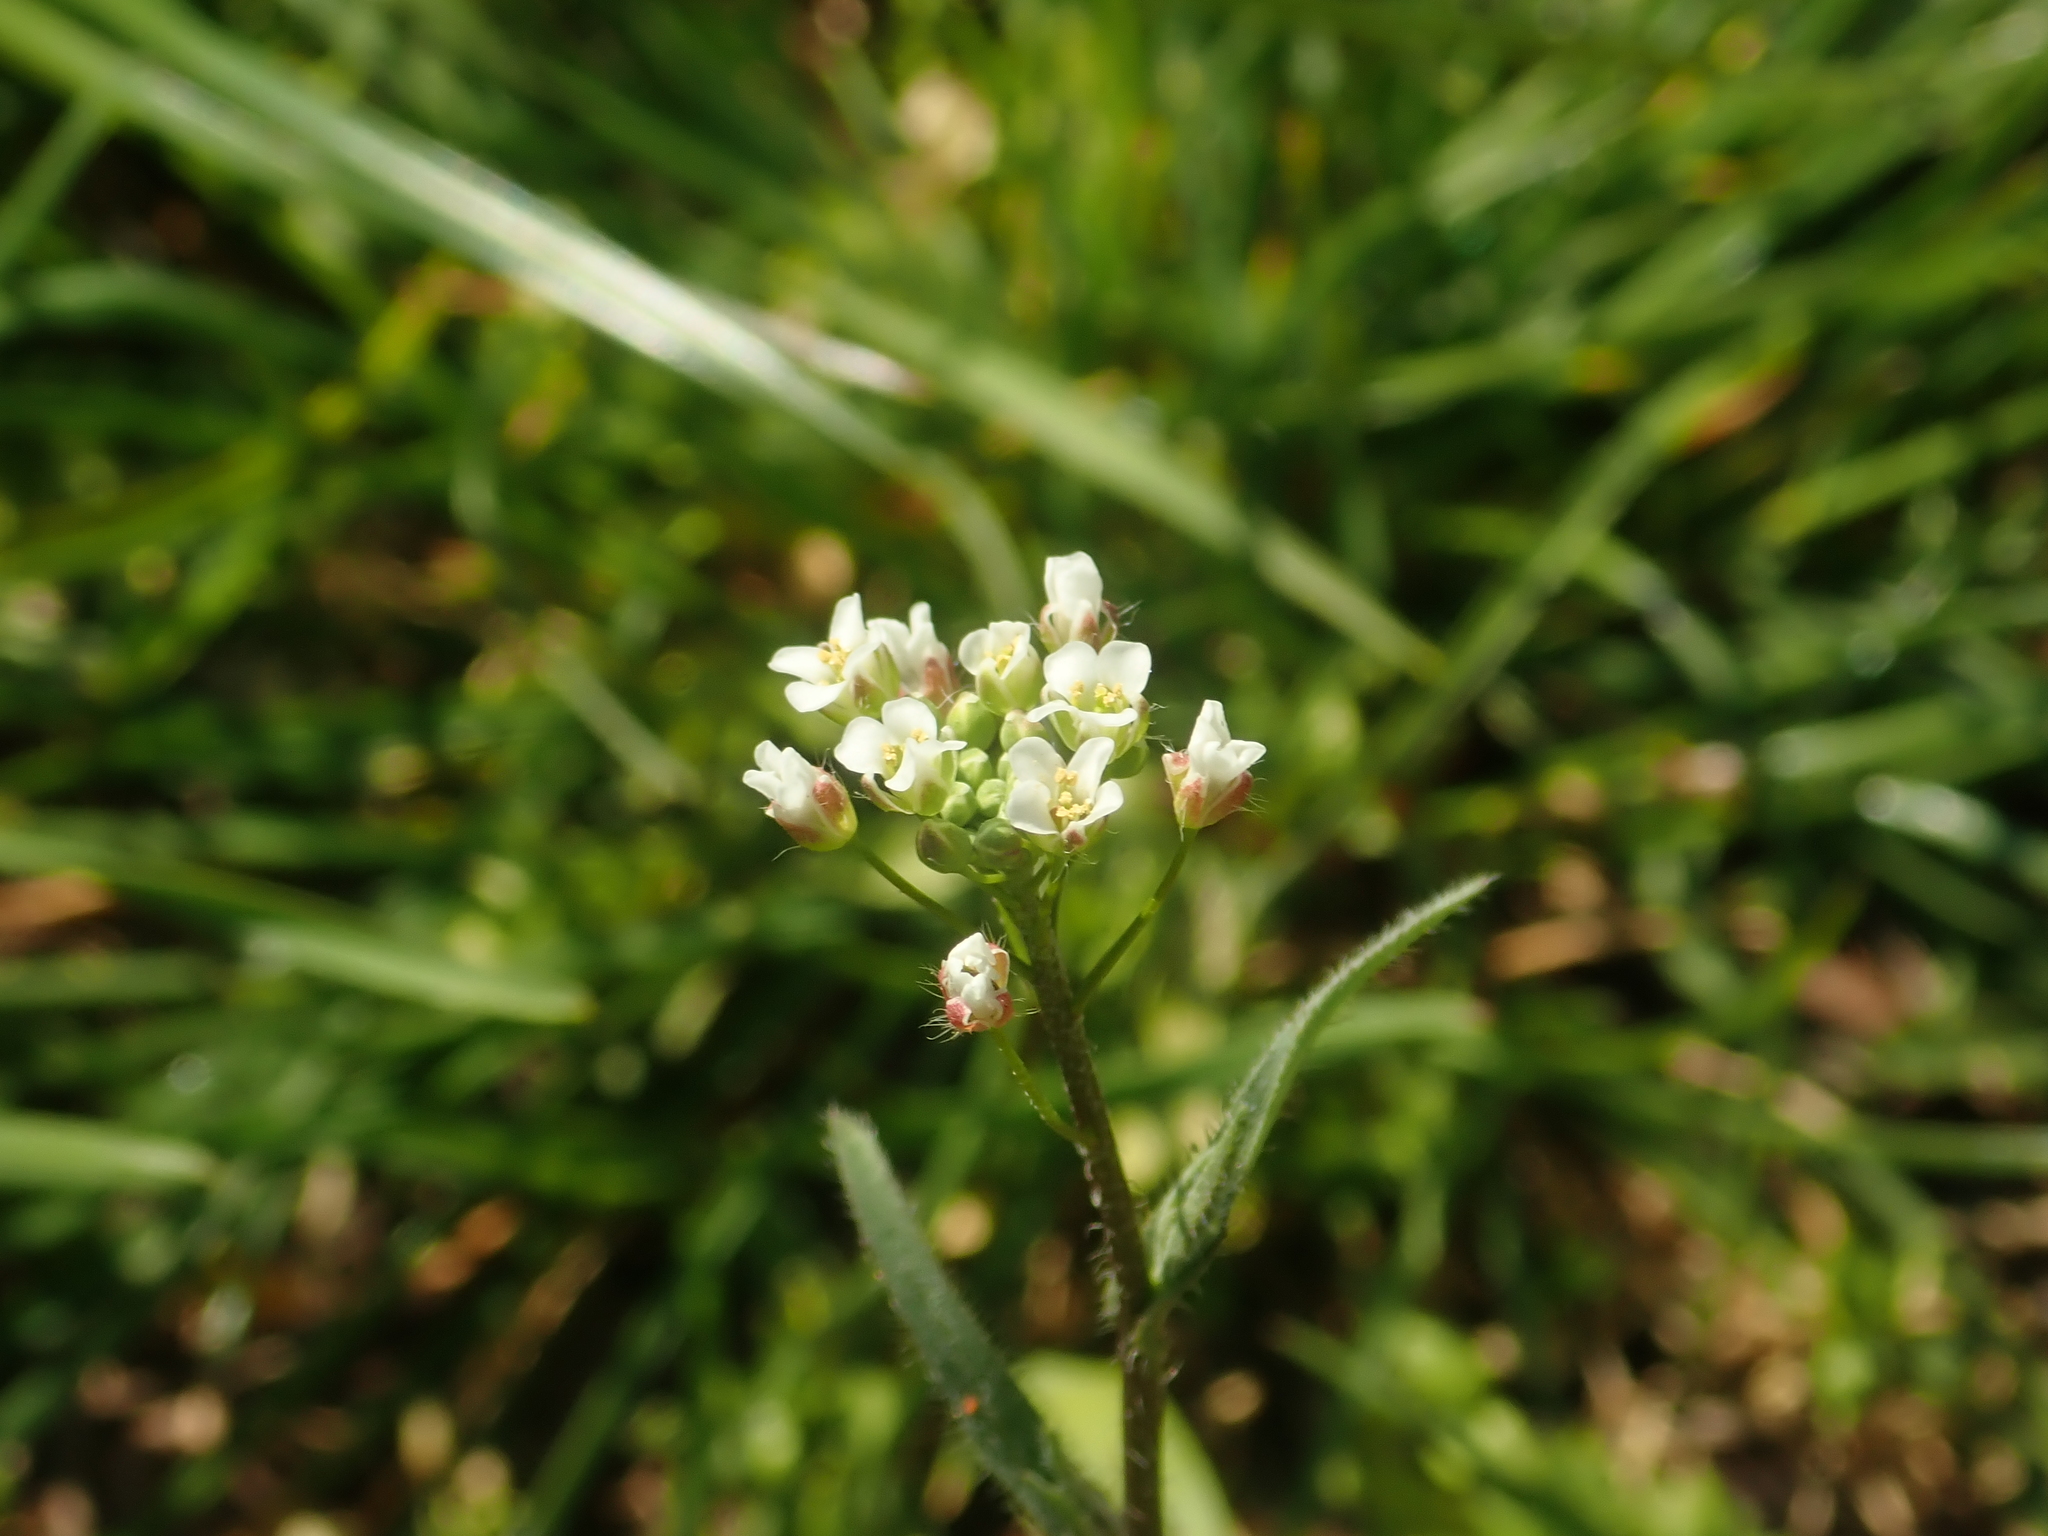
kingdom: Plantae
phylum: Tracheophyta
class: Magnoliopsida
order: Brassicales
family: Brassicaceae
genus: Capsella
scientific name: Capsella bursa-pastoris
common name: Shepherd's purse
